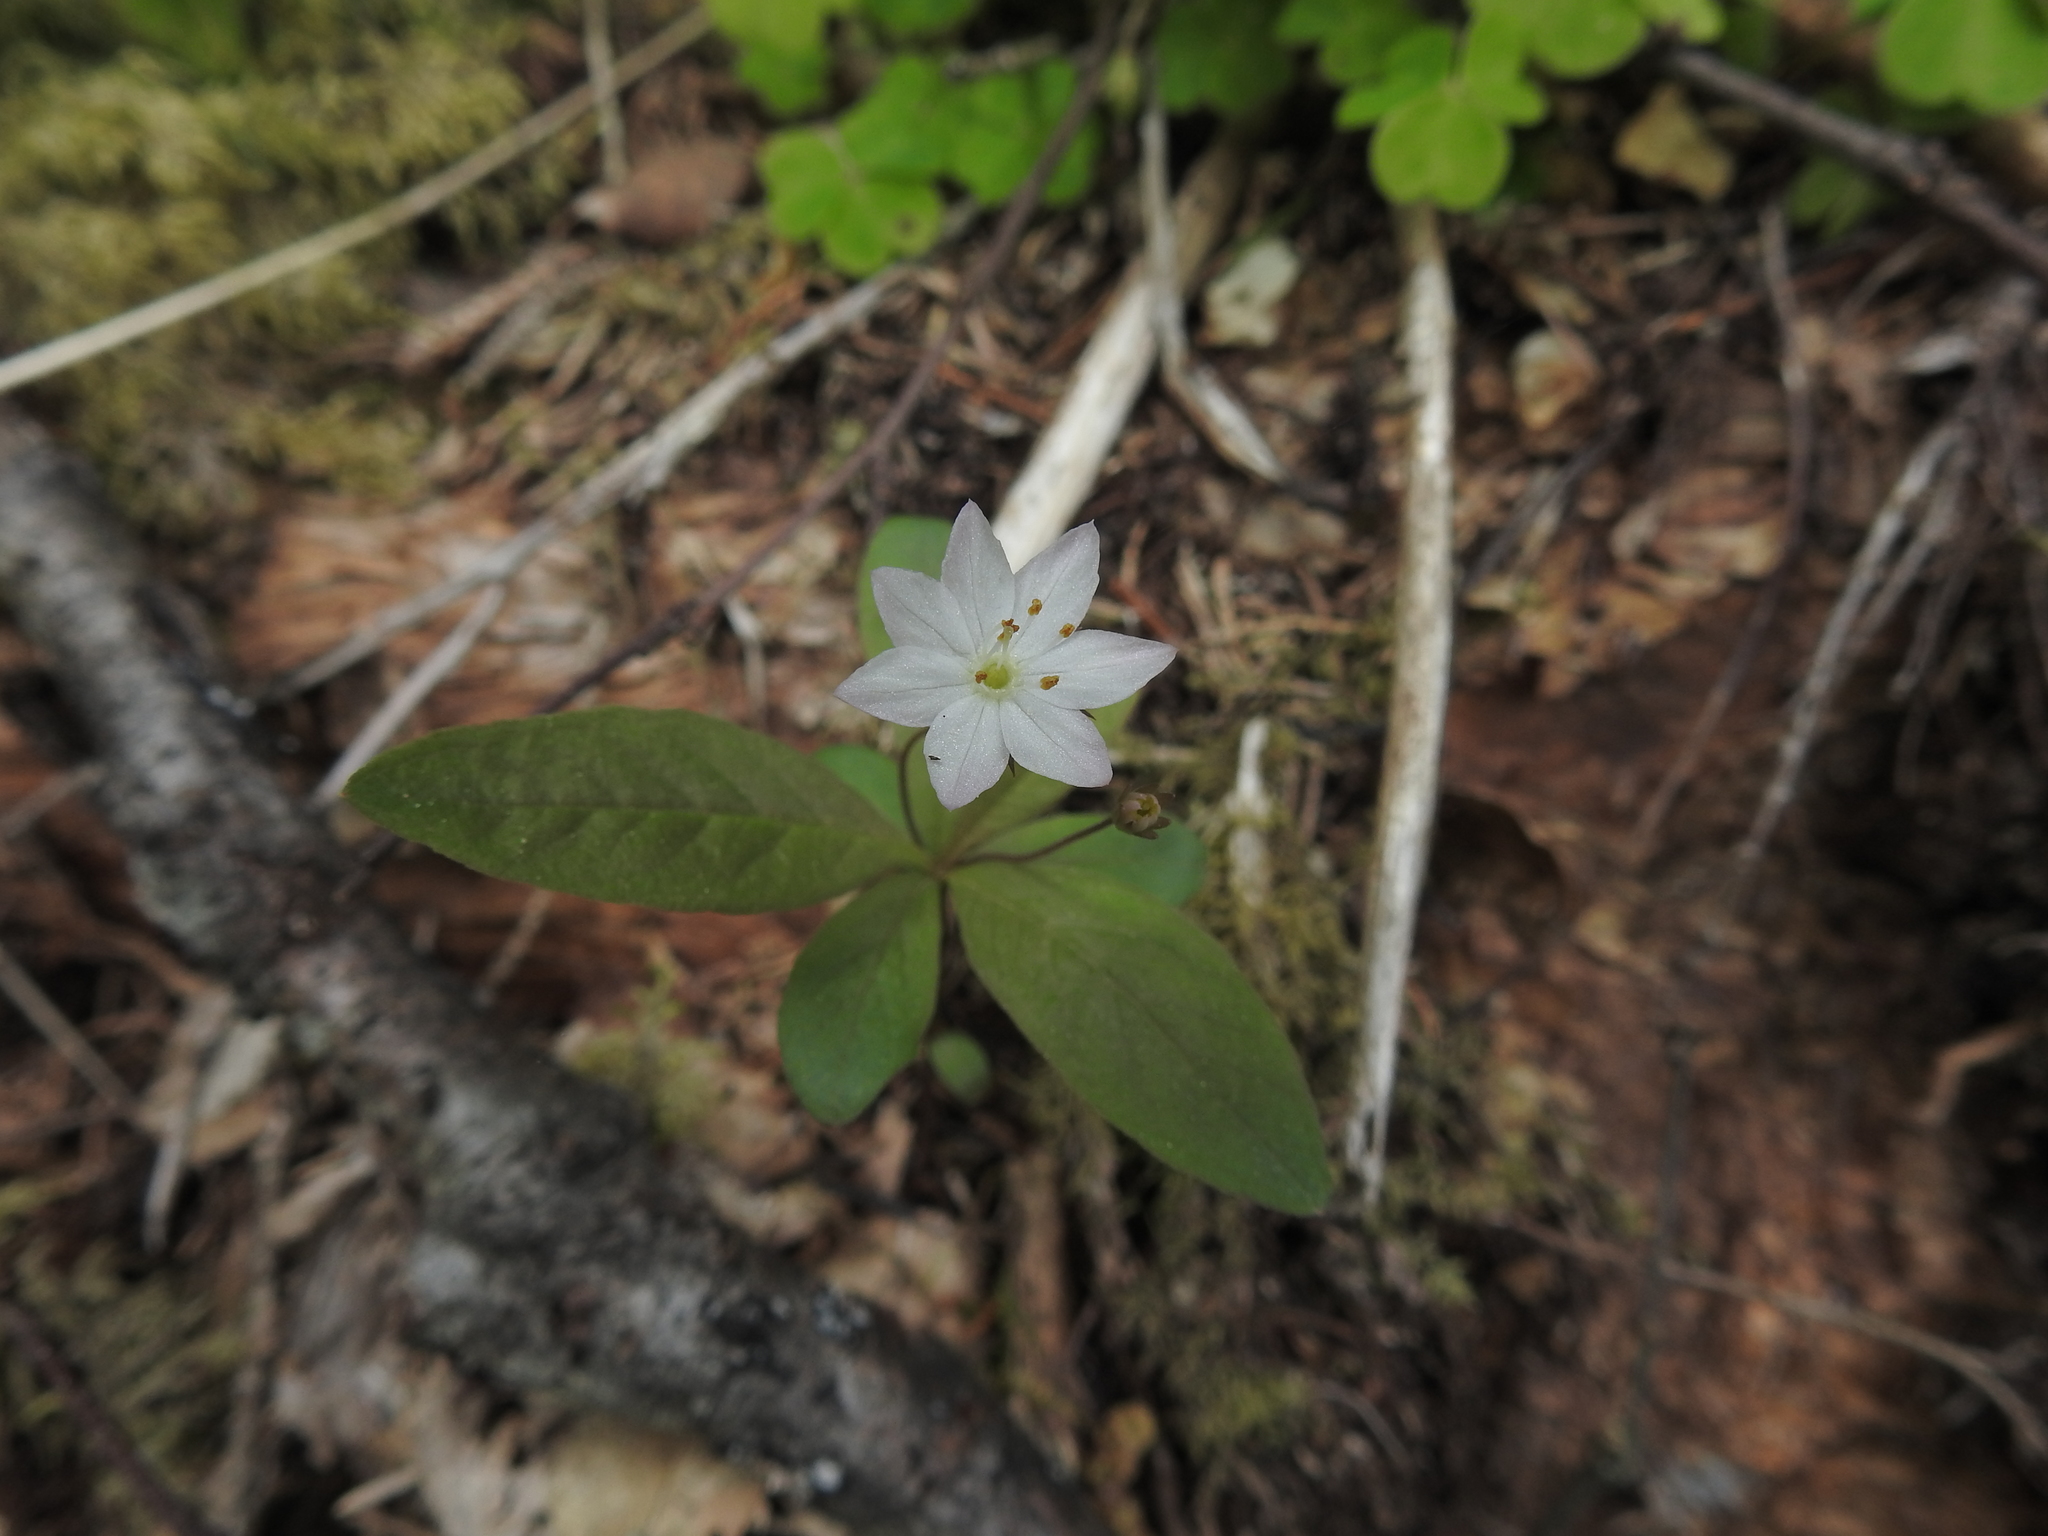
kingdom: Plantae
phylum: Tracheophyta
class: Magnoliopsida
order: Ericales
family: Primulaceae
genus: Lysimachia
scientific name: Lysimachia europaea
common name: Arctic starflower
